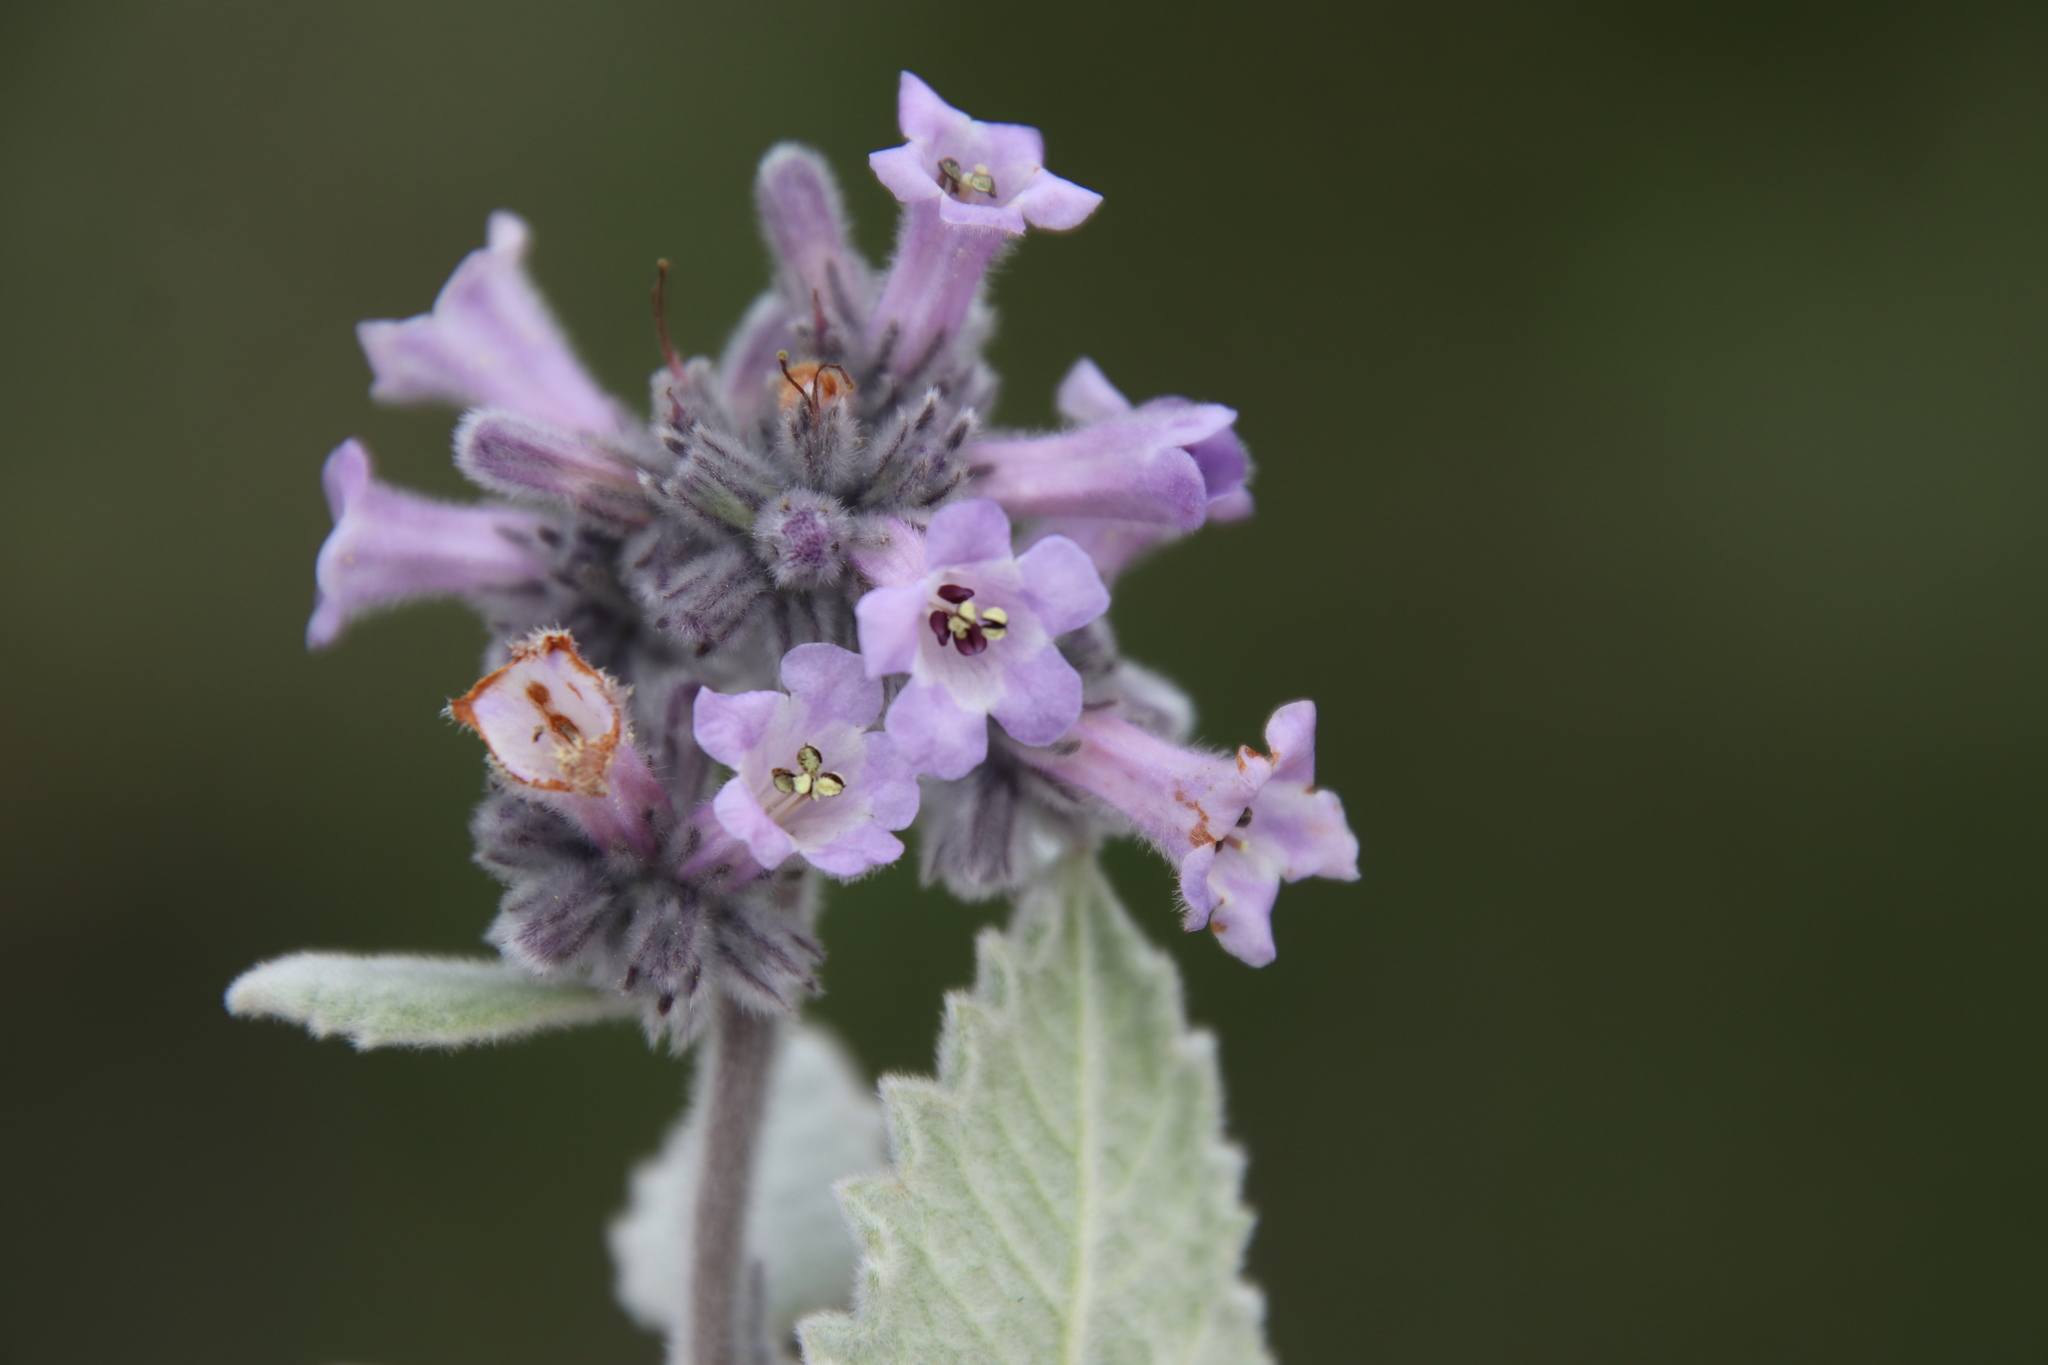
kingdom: Plantae
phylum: Tracheophyta
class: Magnoliopsida
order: Boraginales
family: Namaceae
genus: Eriodictyon
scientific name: Eriodictyon crassifolium
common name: Thick-leaf yerba-santa
